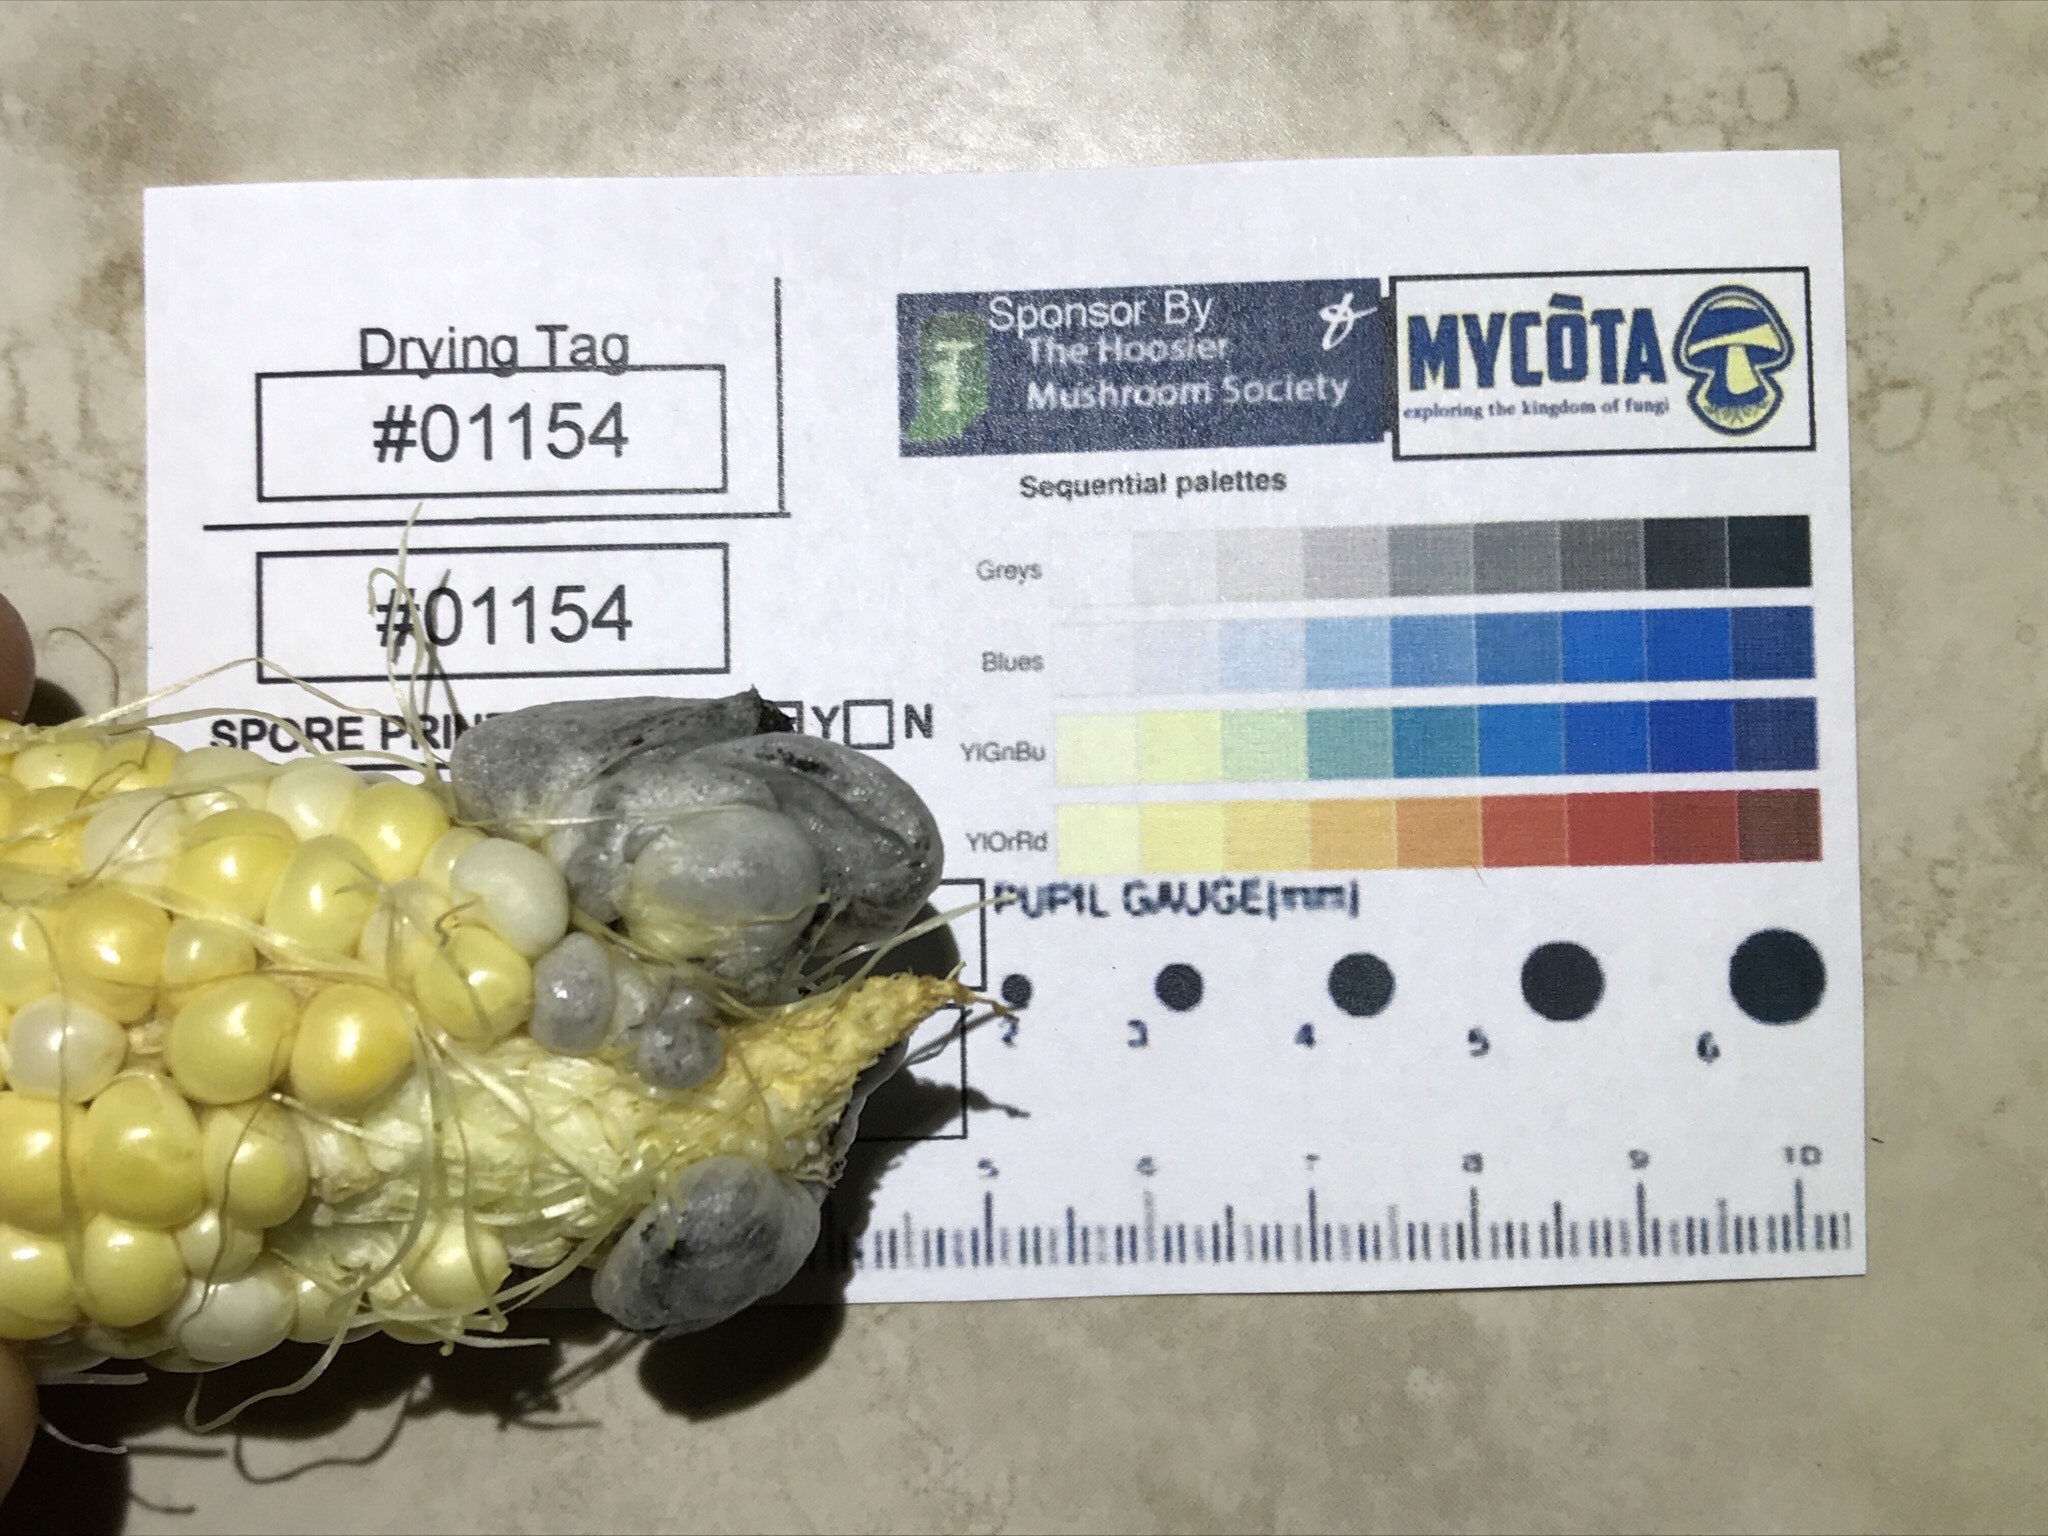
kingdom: Fungi
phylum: Basidiomycota
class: Ustilaginomycetes
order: Ustilaginales
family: Ustilaginaceae
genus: Mycosarcoma
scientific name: Mycosarcoma maydis
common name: Corn smut
